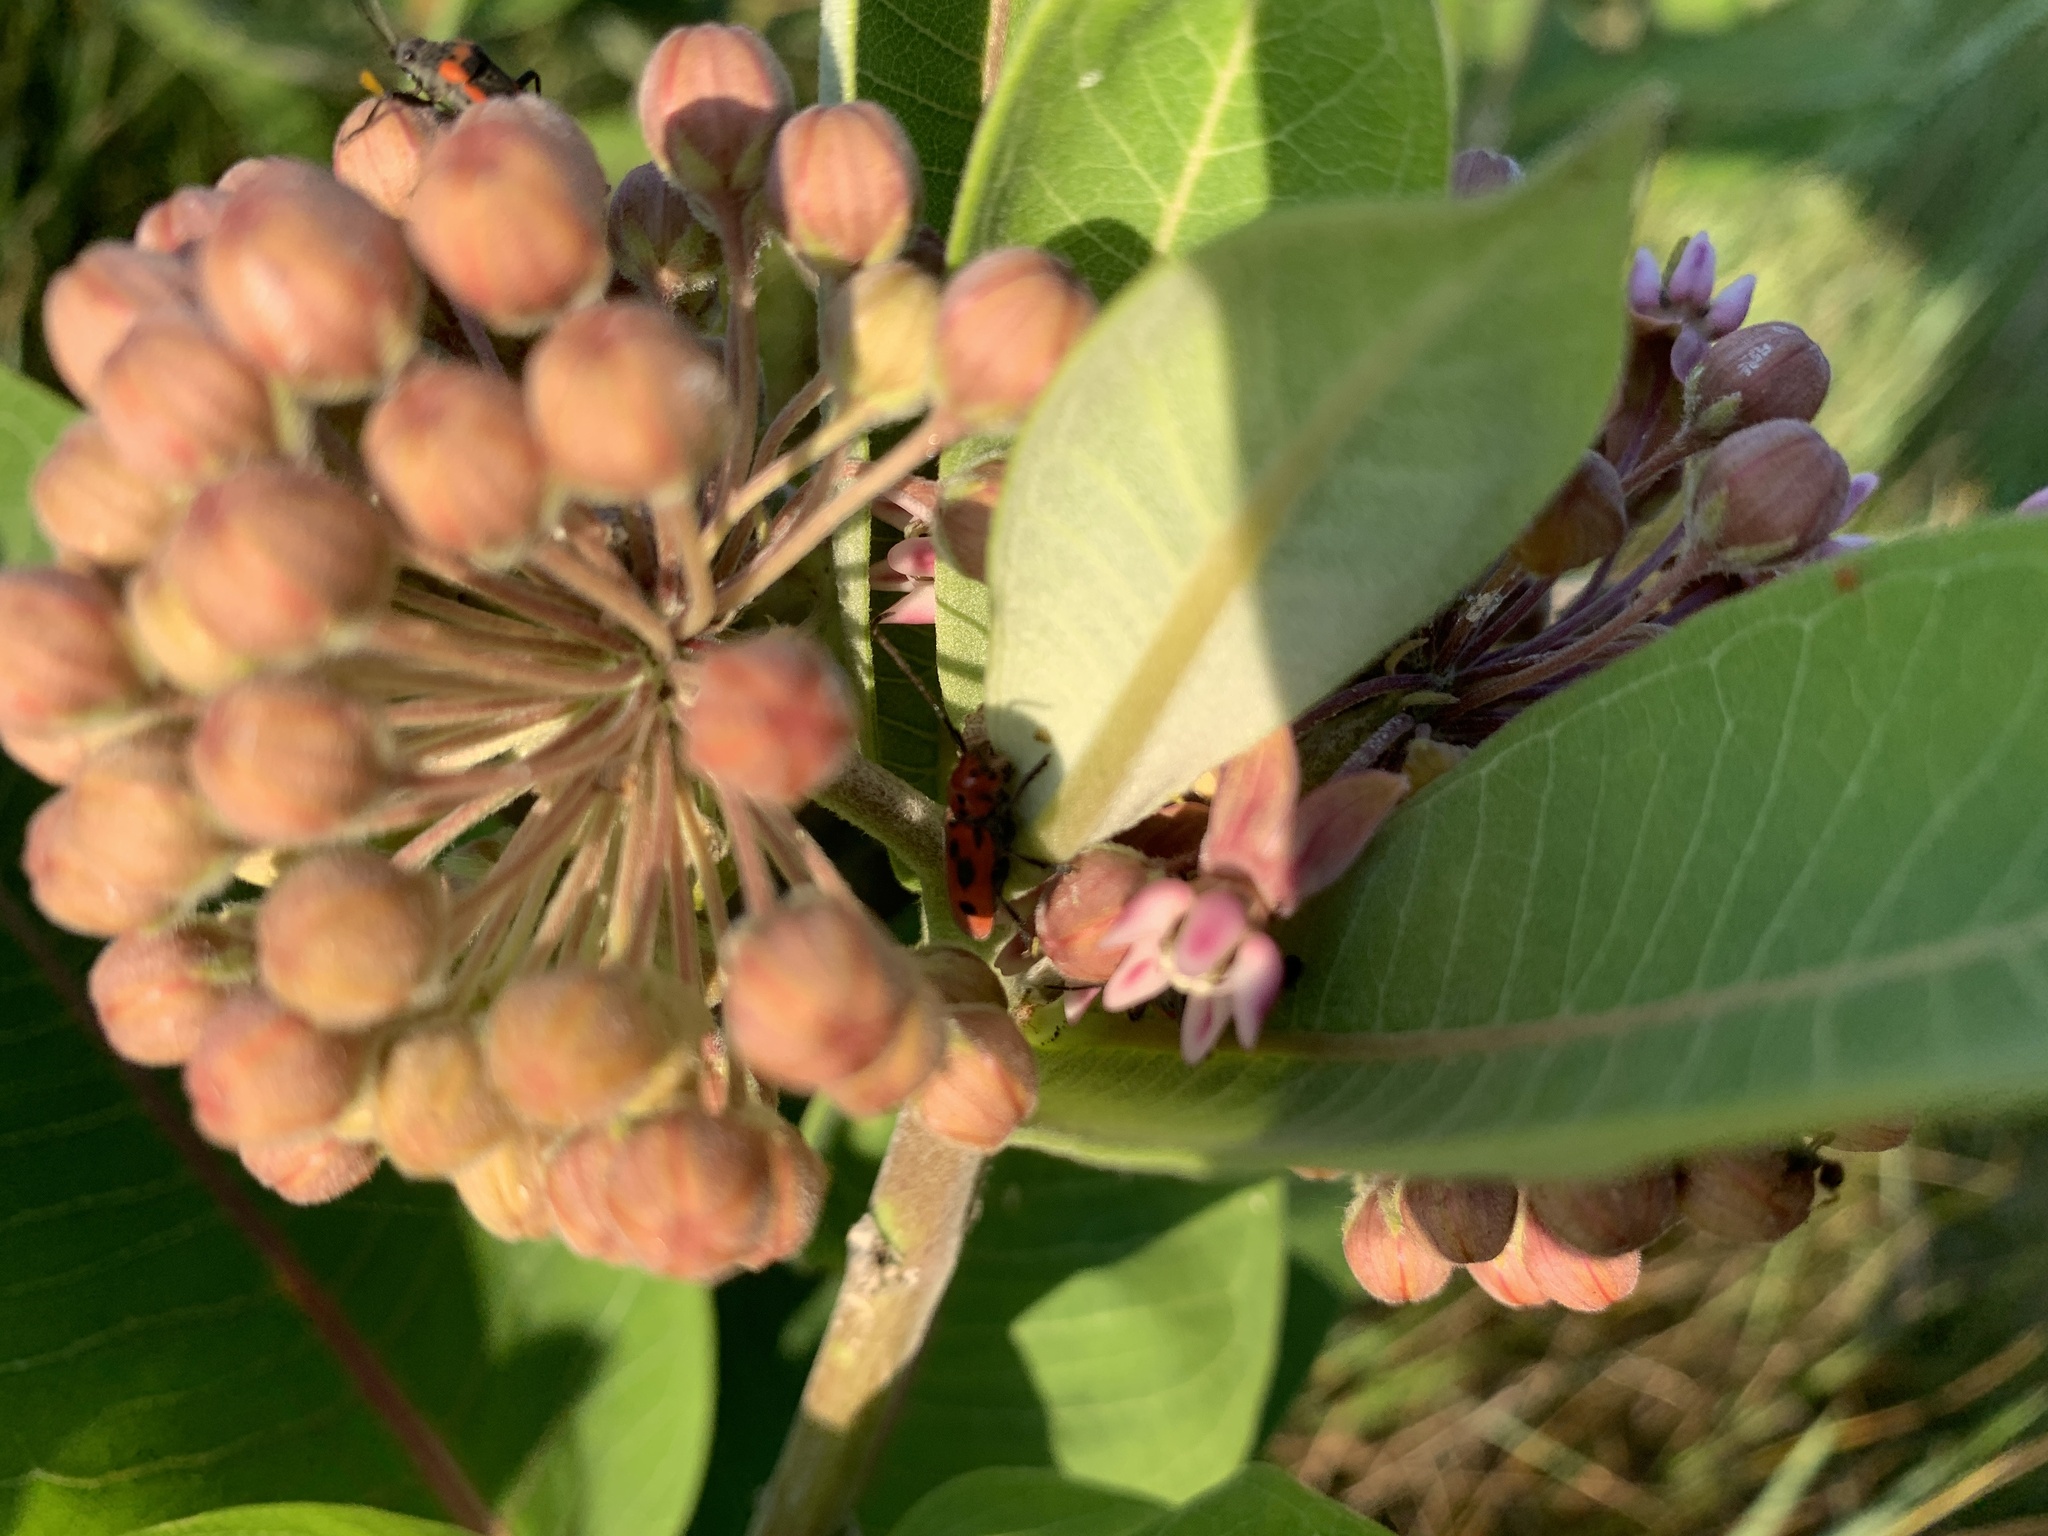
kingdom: Animalia
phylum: Arthropoda
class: Insecta
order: Coleoptera
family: Cerambycidae
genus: Tetraopes
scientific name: Tetraopes tetrophthalmus
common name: Red milkweed beetle
